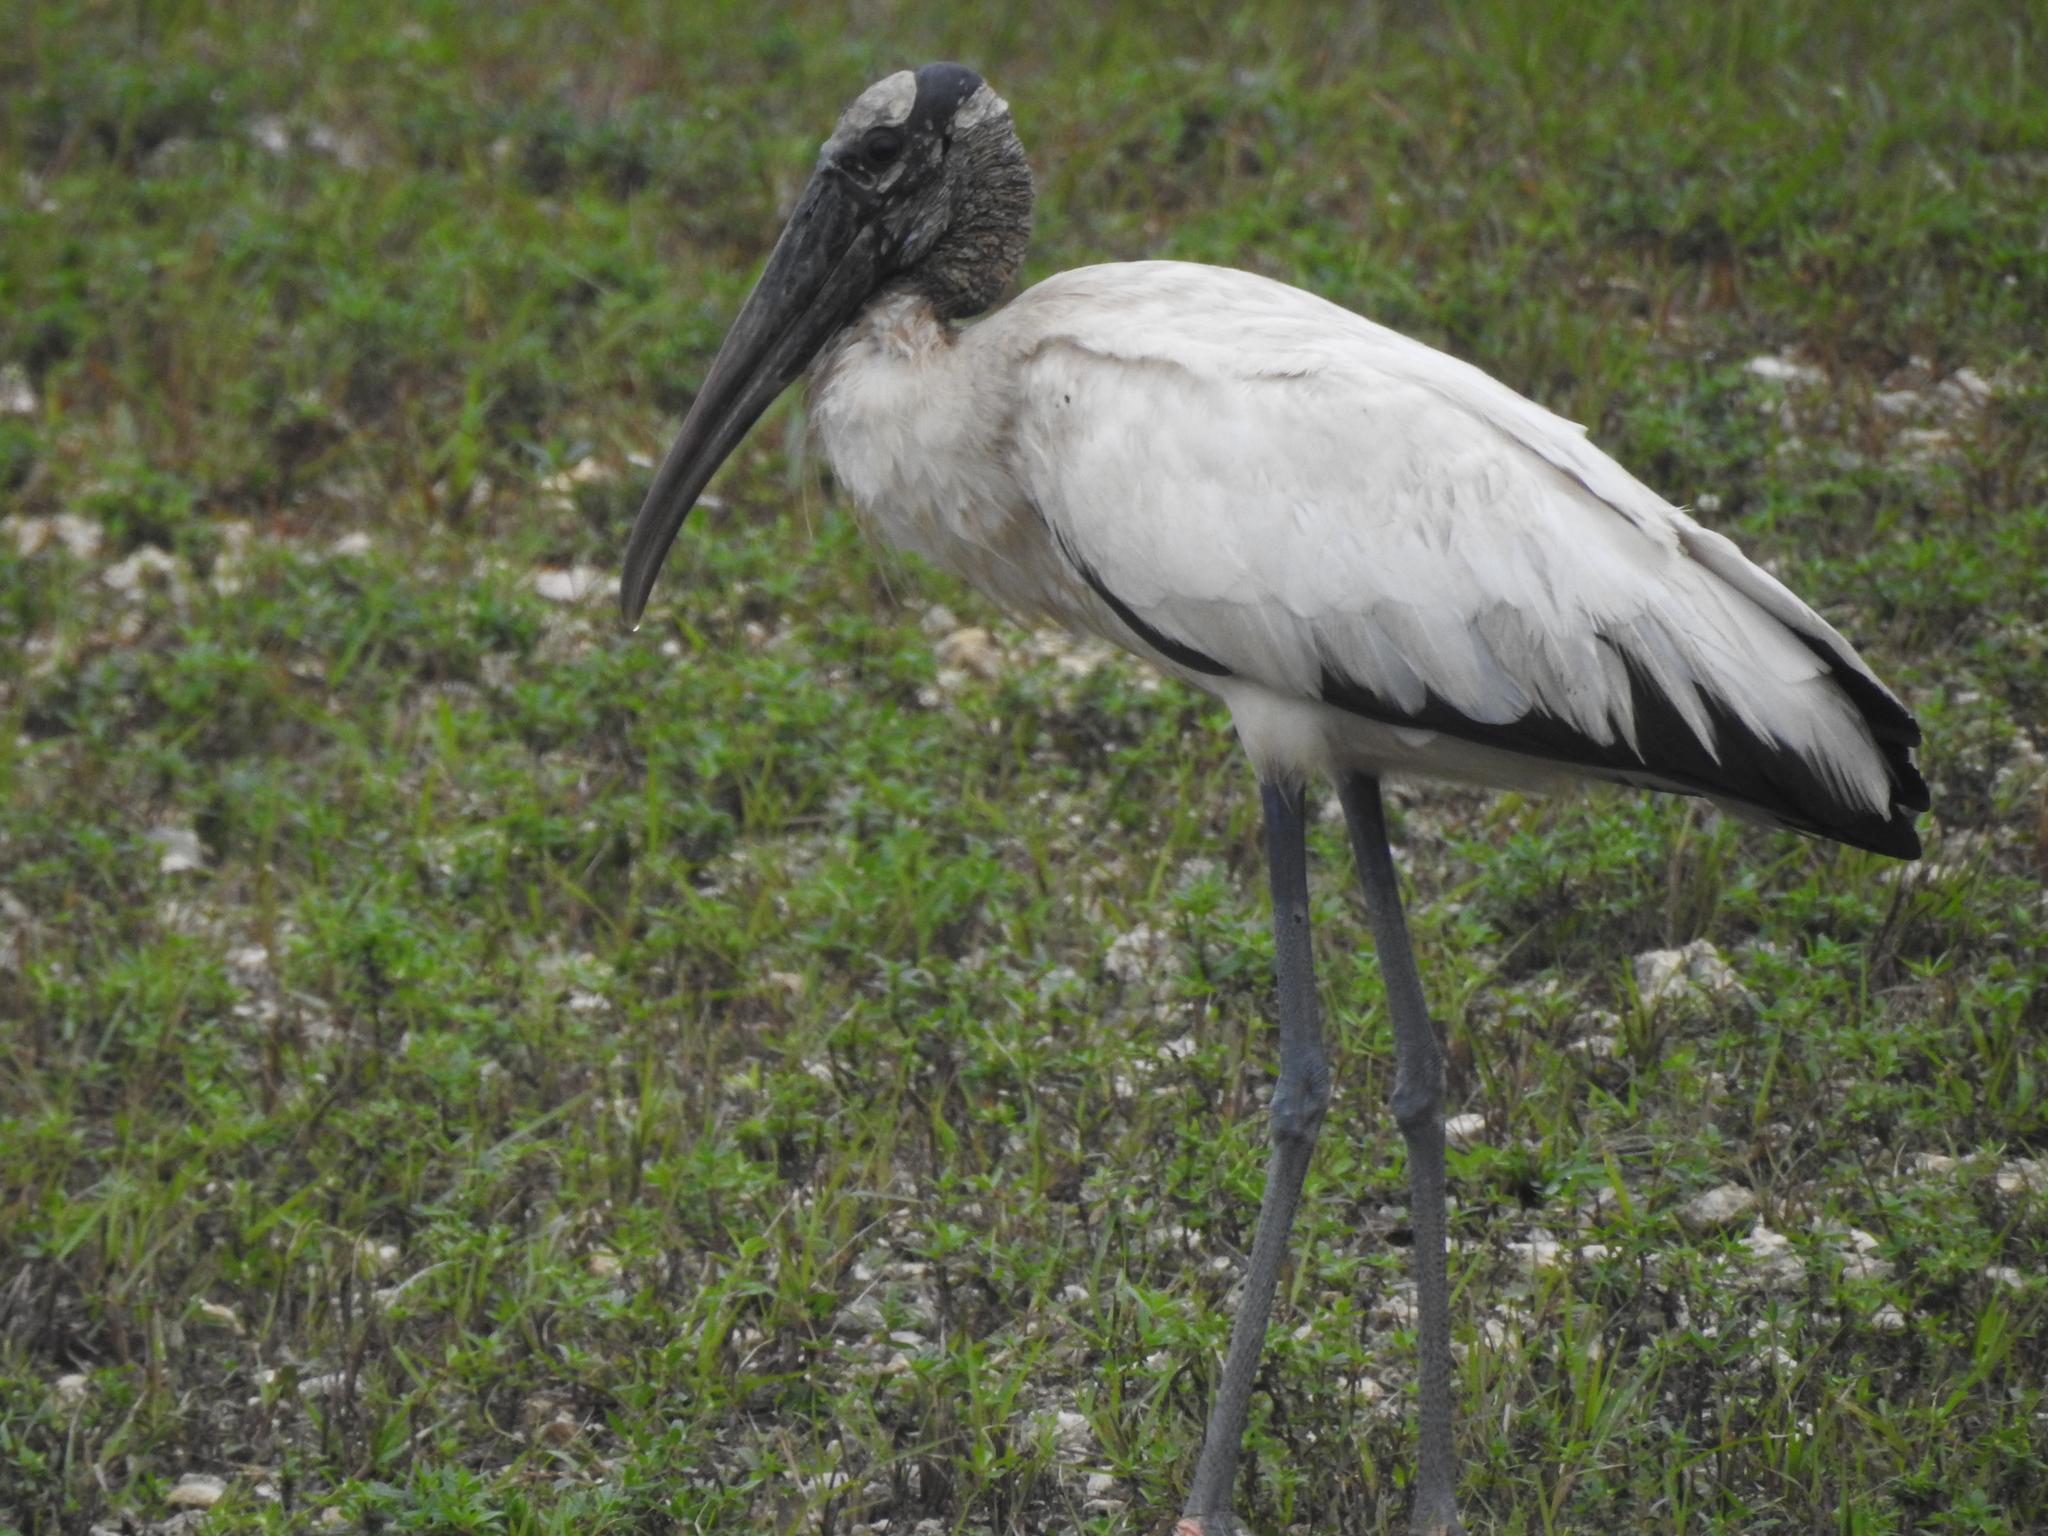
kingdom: Animalia
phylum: Chordata
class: Aves
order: Ciconiiformes
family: Ciconiidae
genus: Mycteria
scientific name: Mycteria americana
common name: Wood stork
